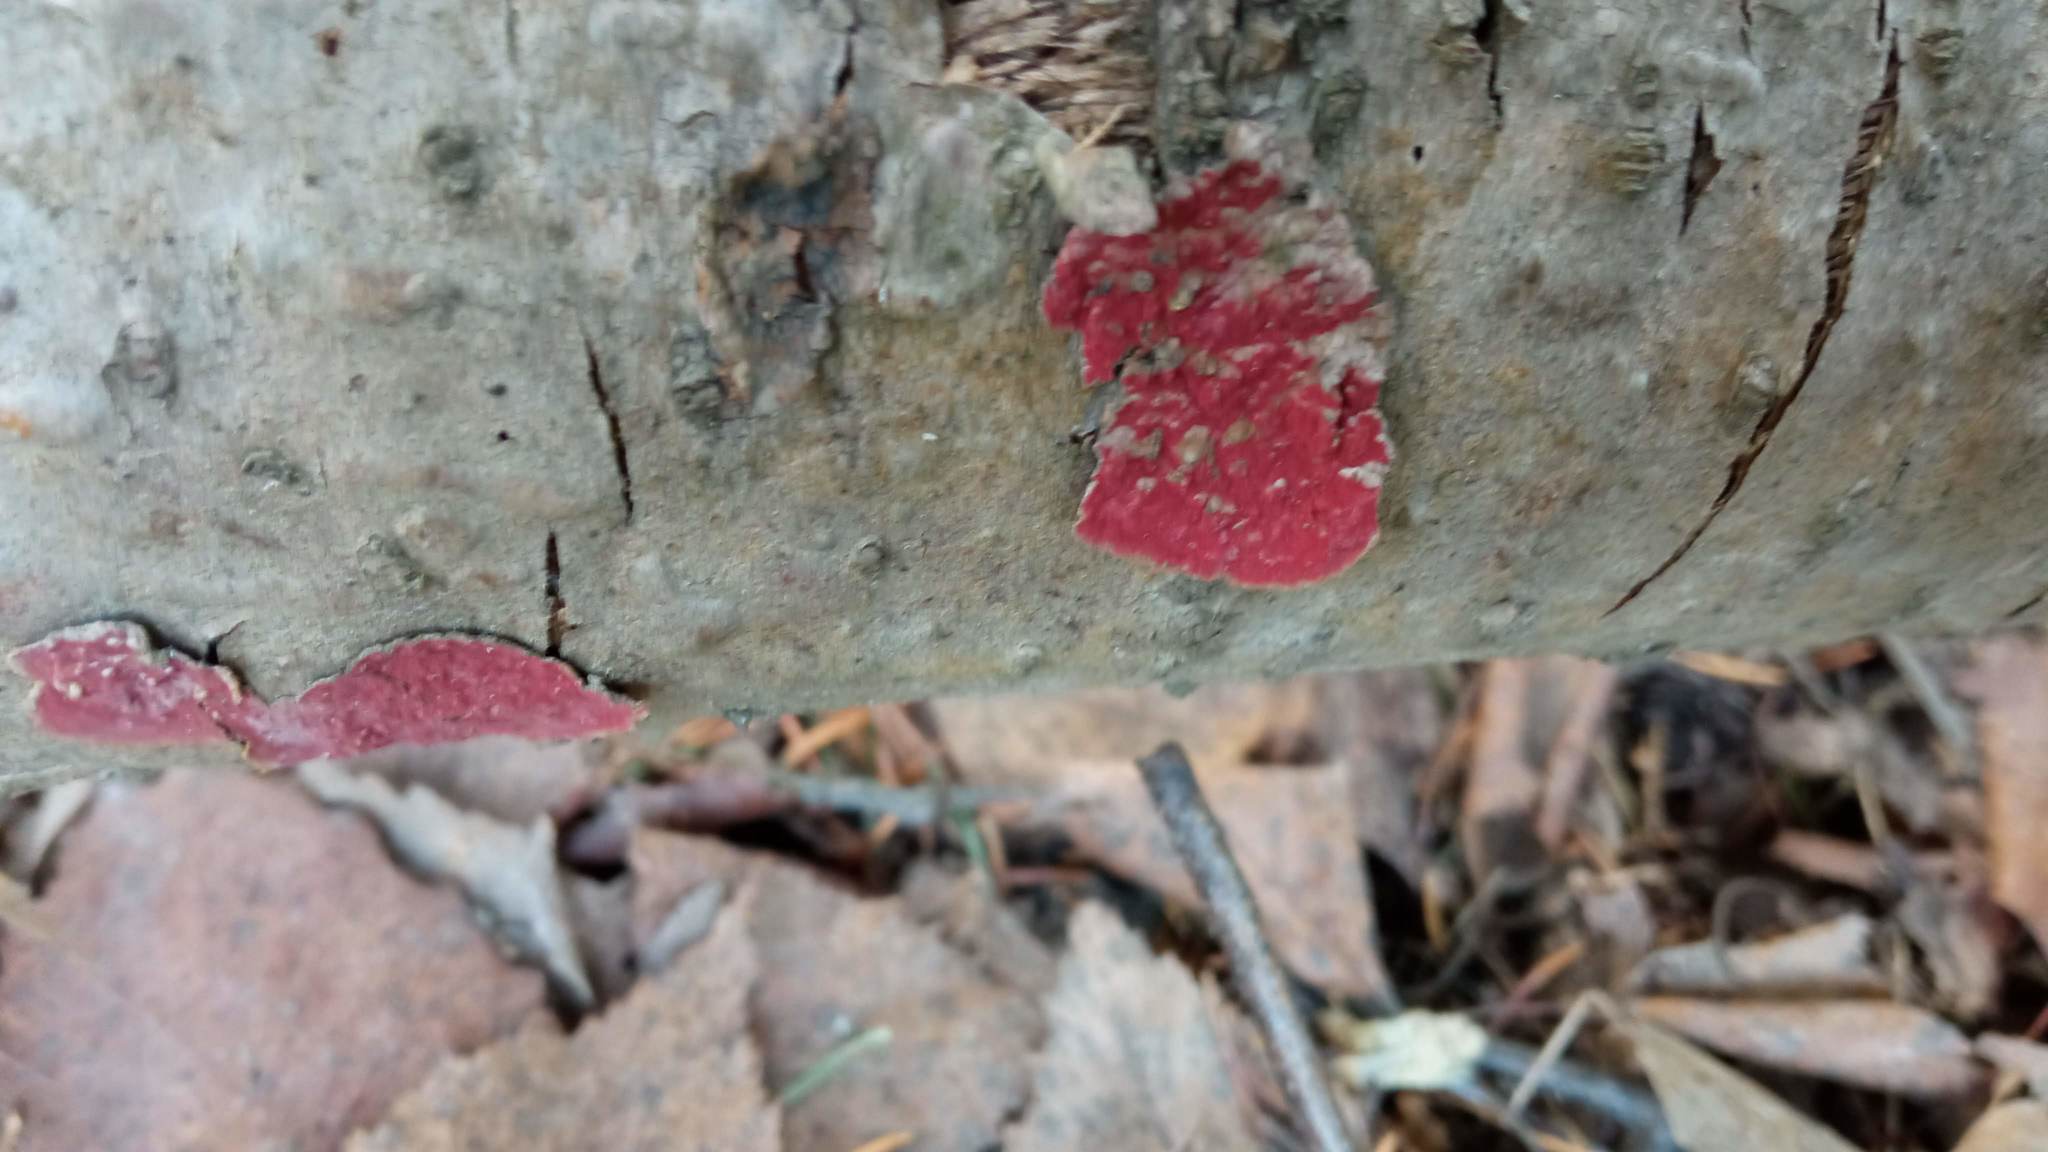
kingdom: Fungi
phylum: Basidiomycota
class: Agaricomycetes
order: Hymenochaetales
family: Hymenochaetaceae
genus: Hymenochaete
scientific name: Hymenochaete cruenta
